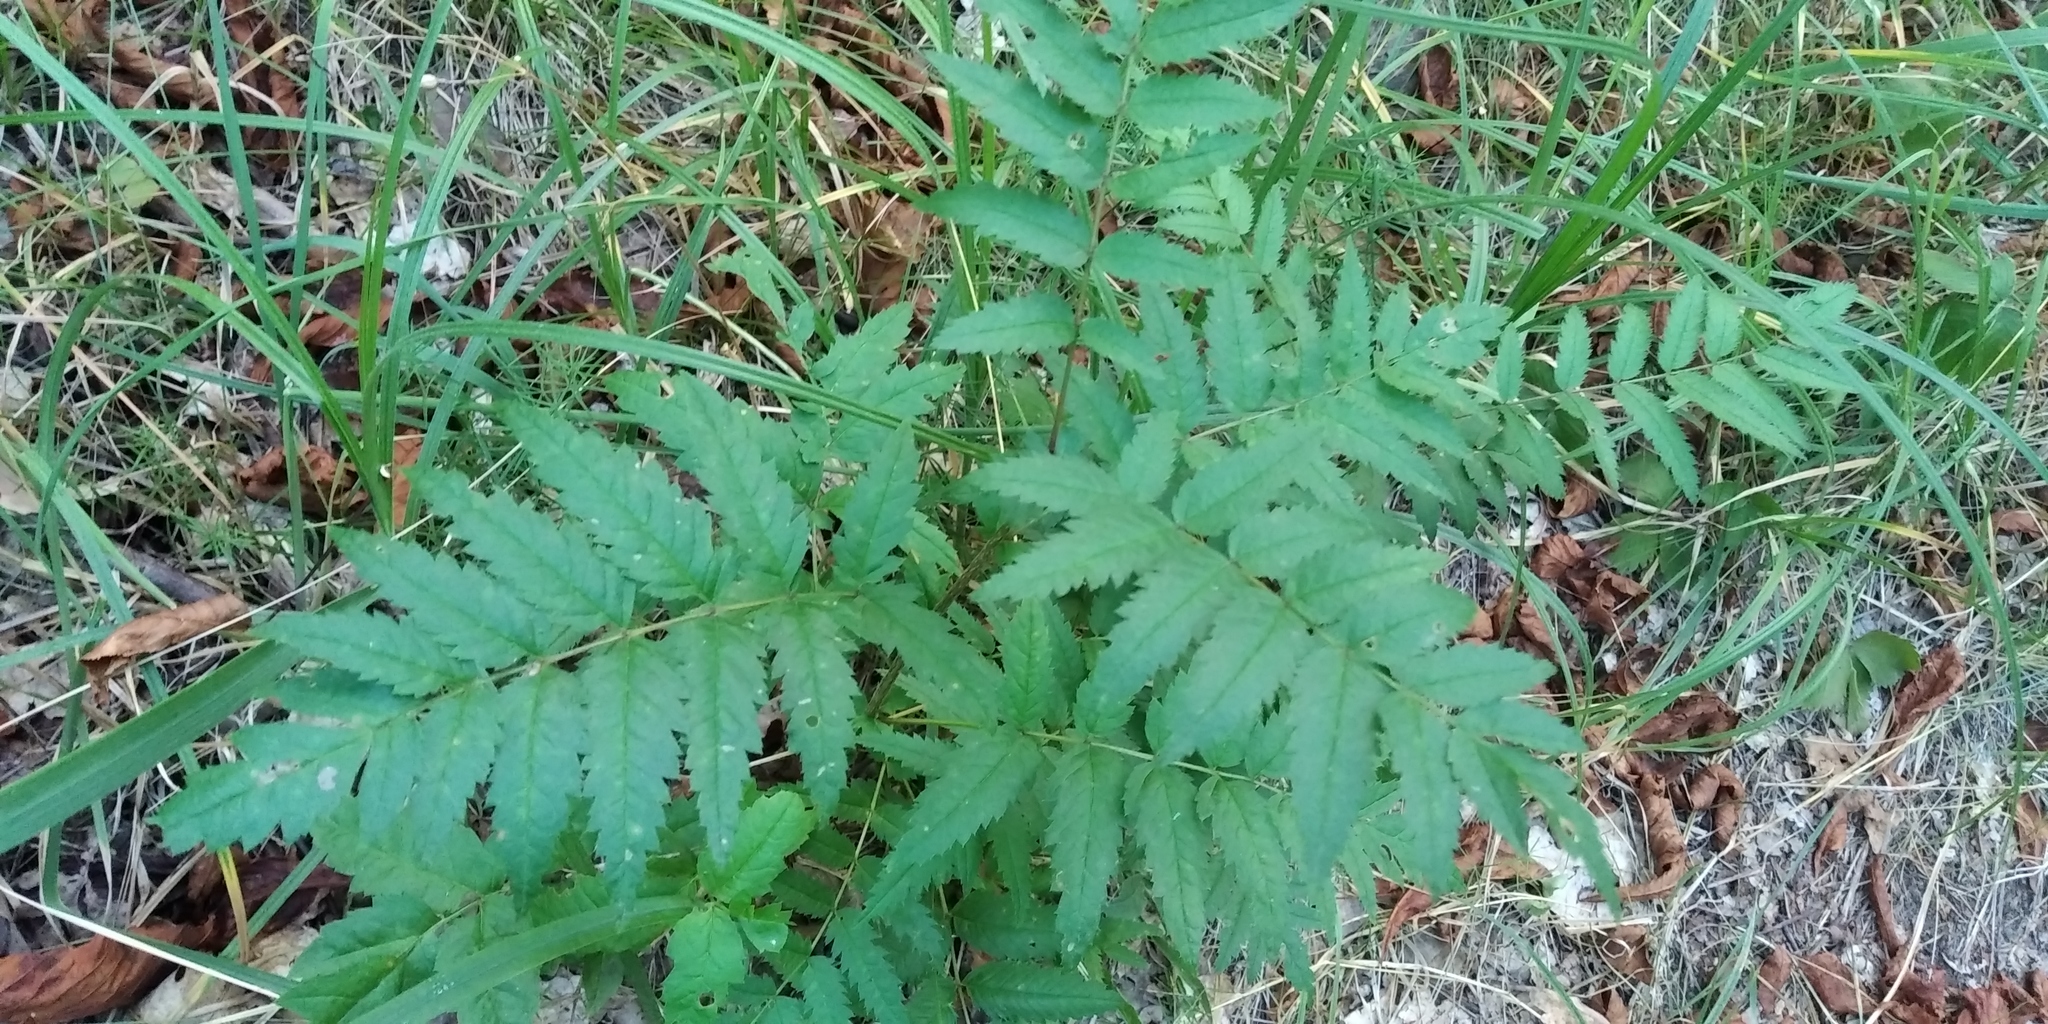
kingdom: Plantae
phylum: Tracheophyta
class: Magnoliopsida
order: Rosales
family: Rosaceae
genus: Sorbus
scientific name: Sorbus aucuparia
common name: Rowan
